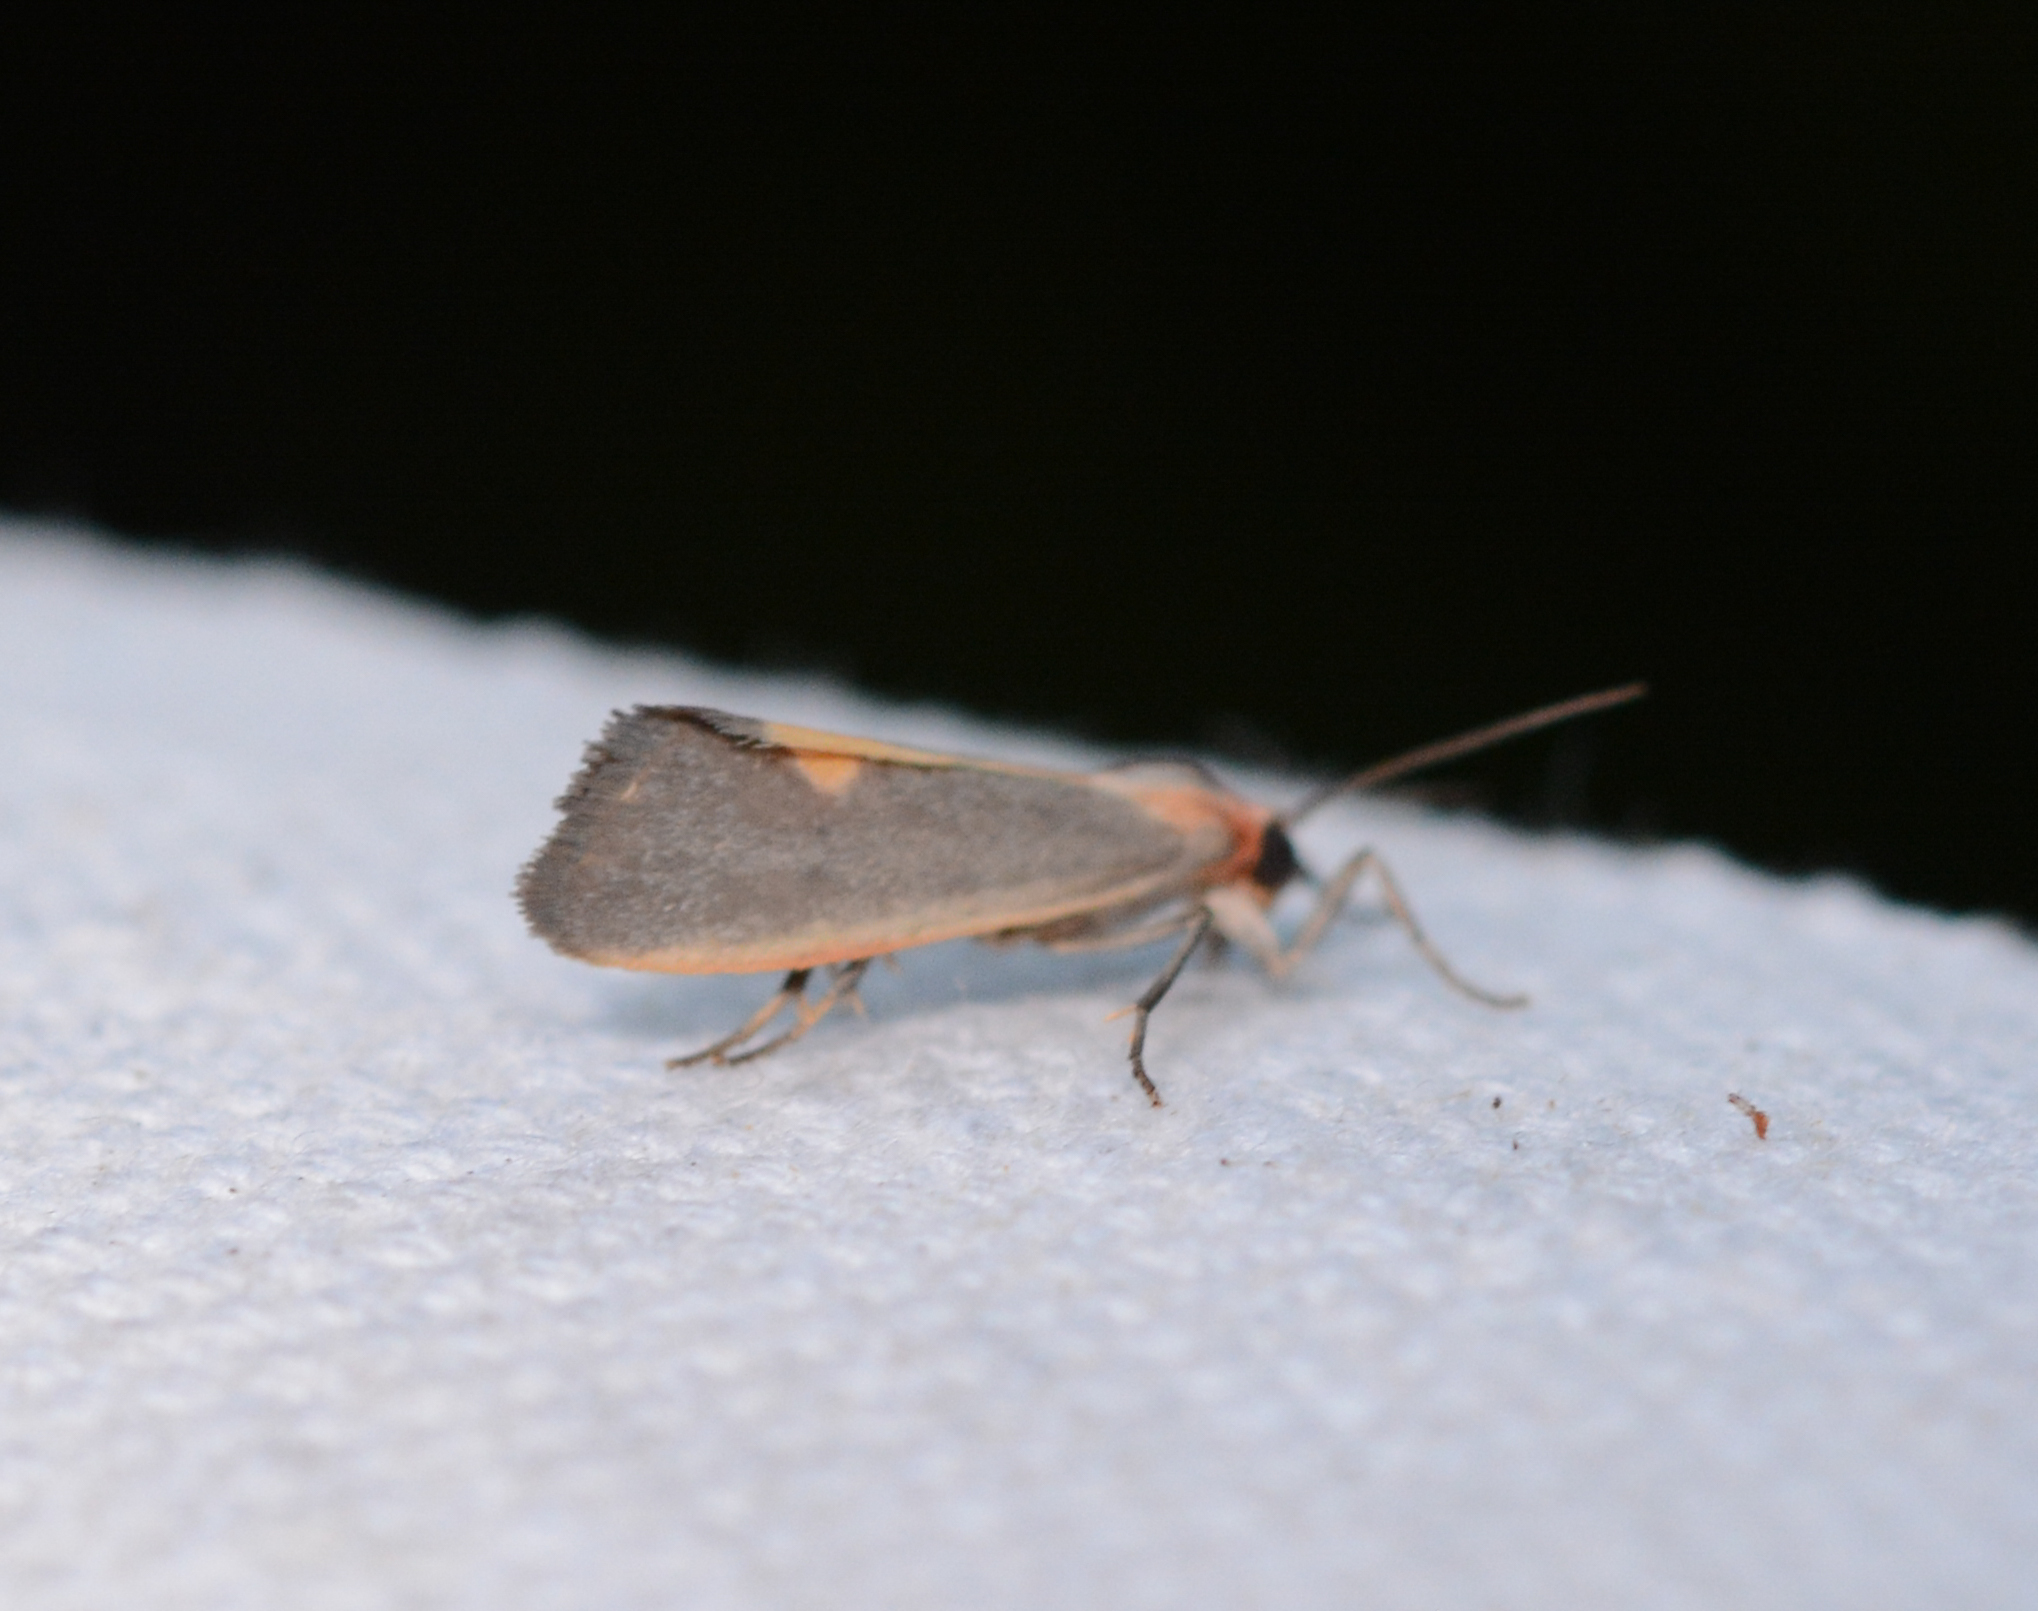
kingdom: Animalia
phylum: Arthropoda
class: Insecta
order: Lepidoptera
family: Erebidae
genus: Cisthene
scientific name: Cisthene plumbea
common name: Lead colored lichen moth
